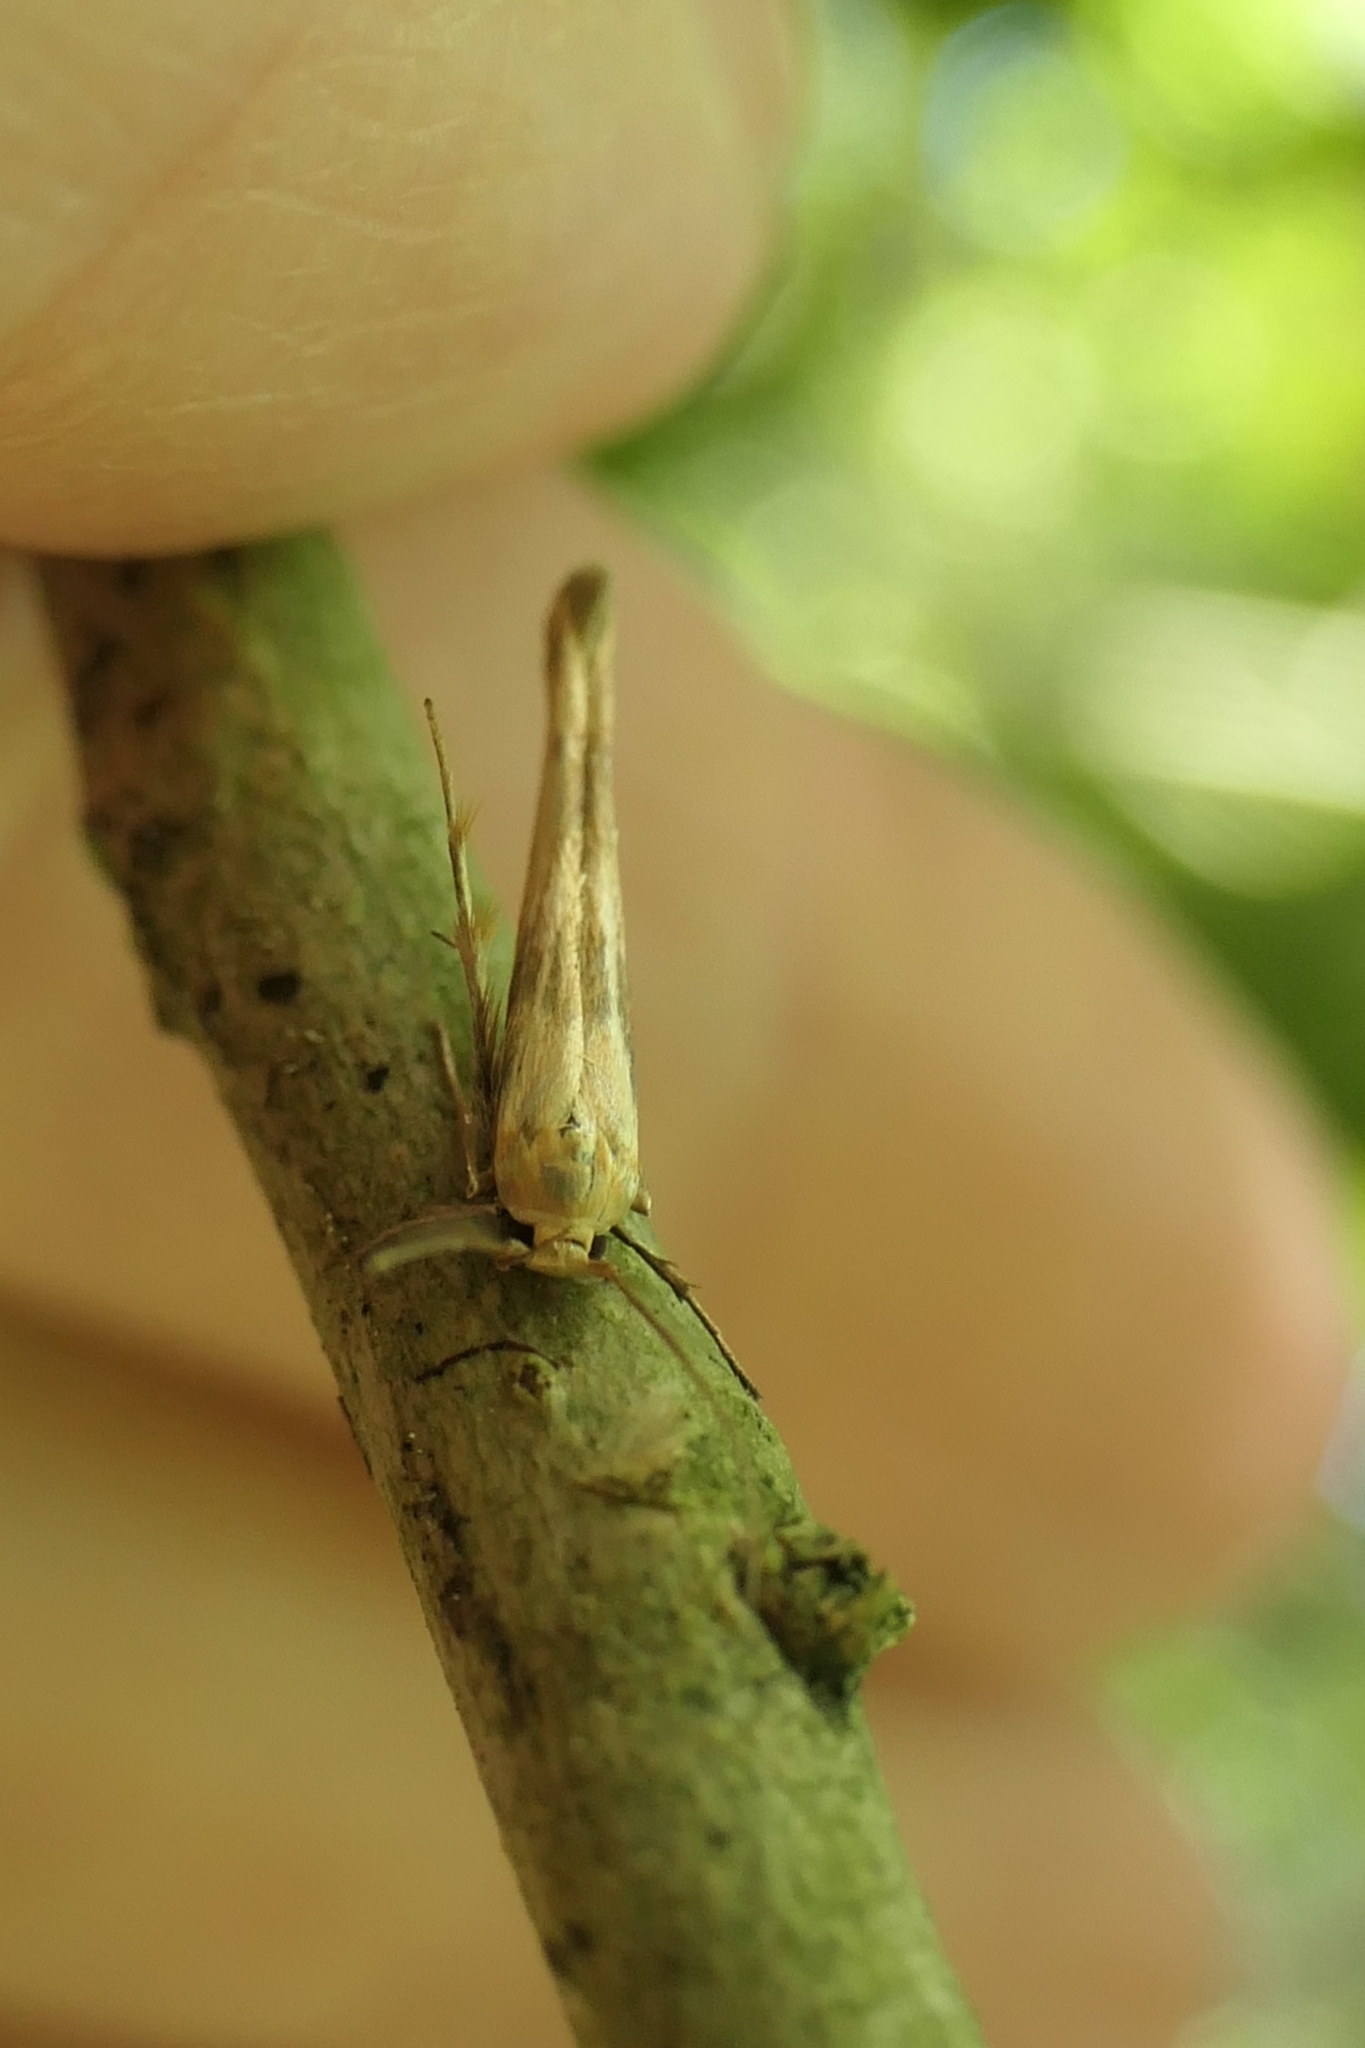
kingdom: Animalia
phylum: Arthropoda
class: Insecta
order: Lepidoptera
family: Stathmopodidae
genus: Stathmopoda
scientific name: Stathmopoda aposema
